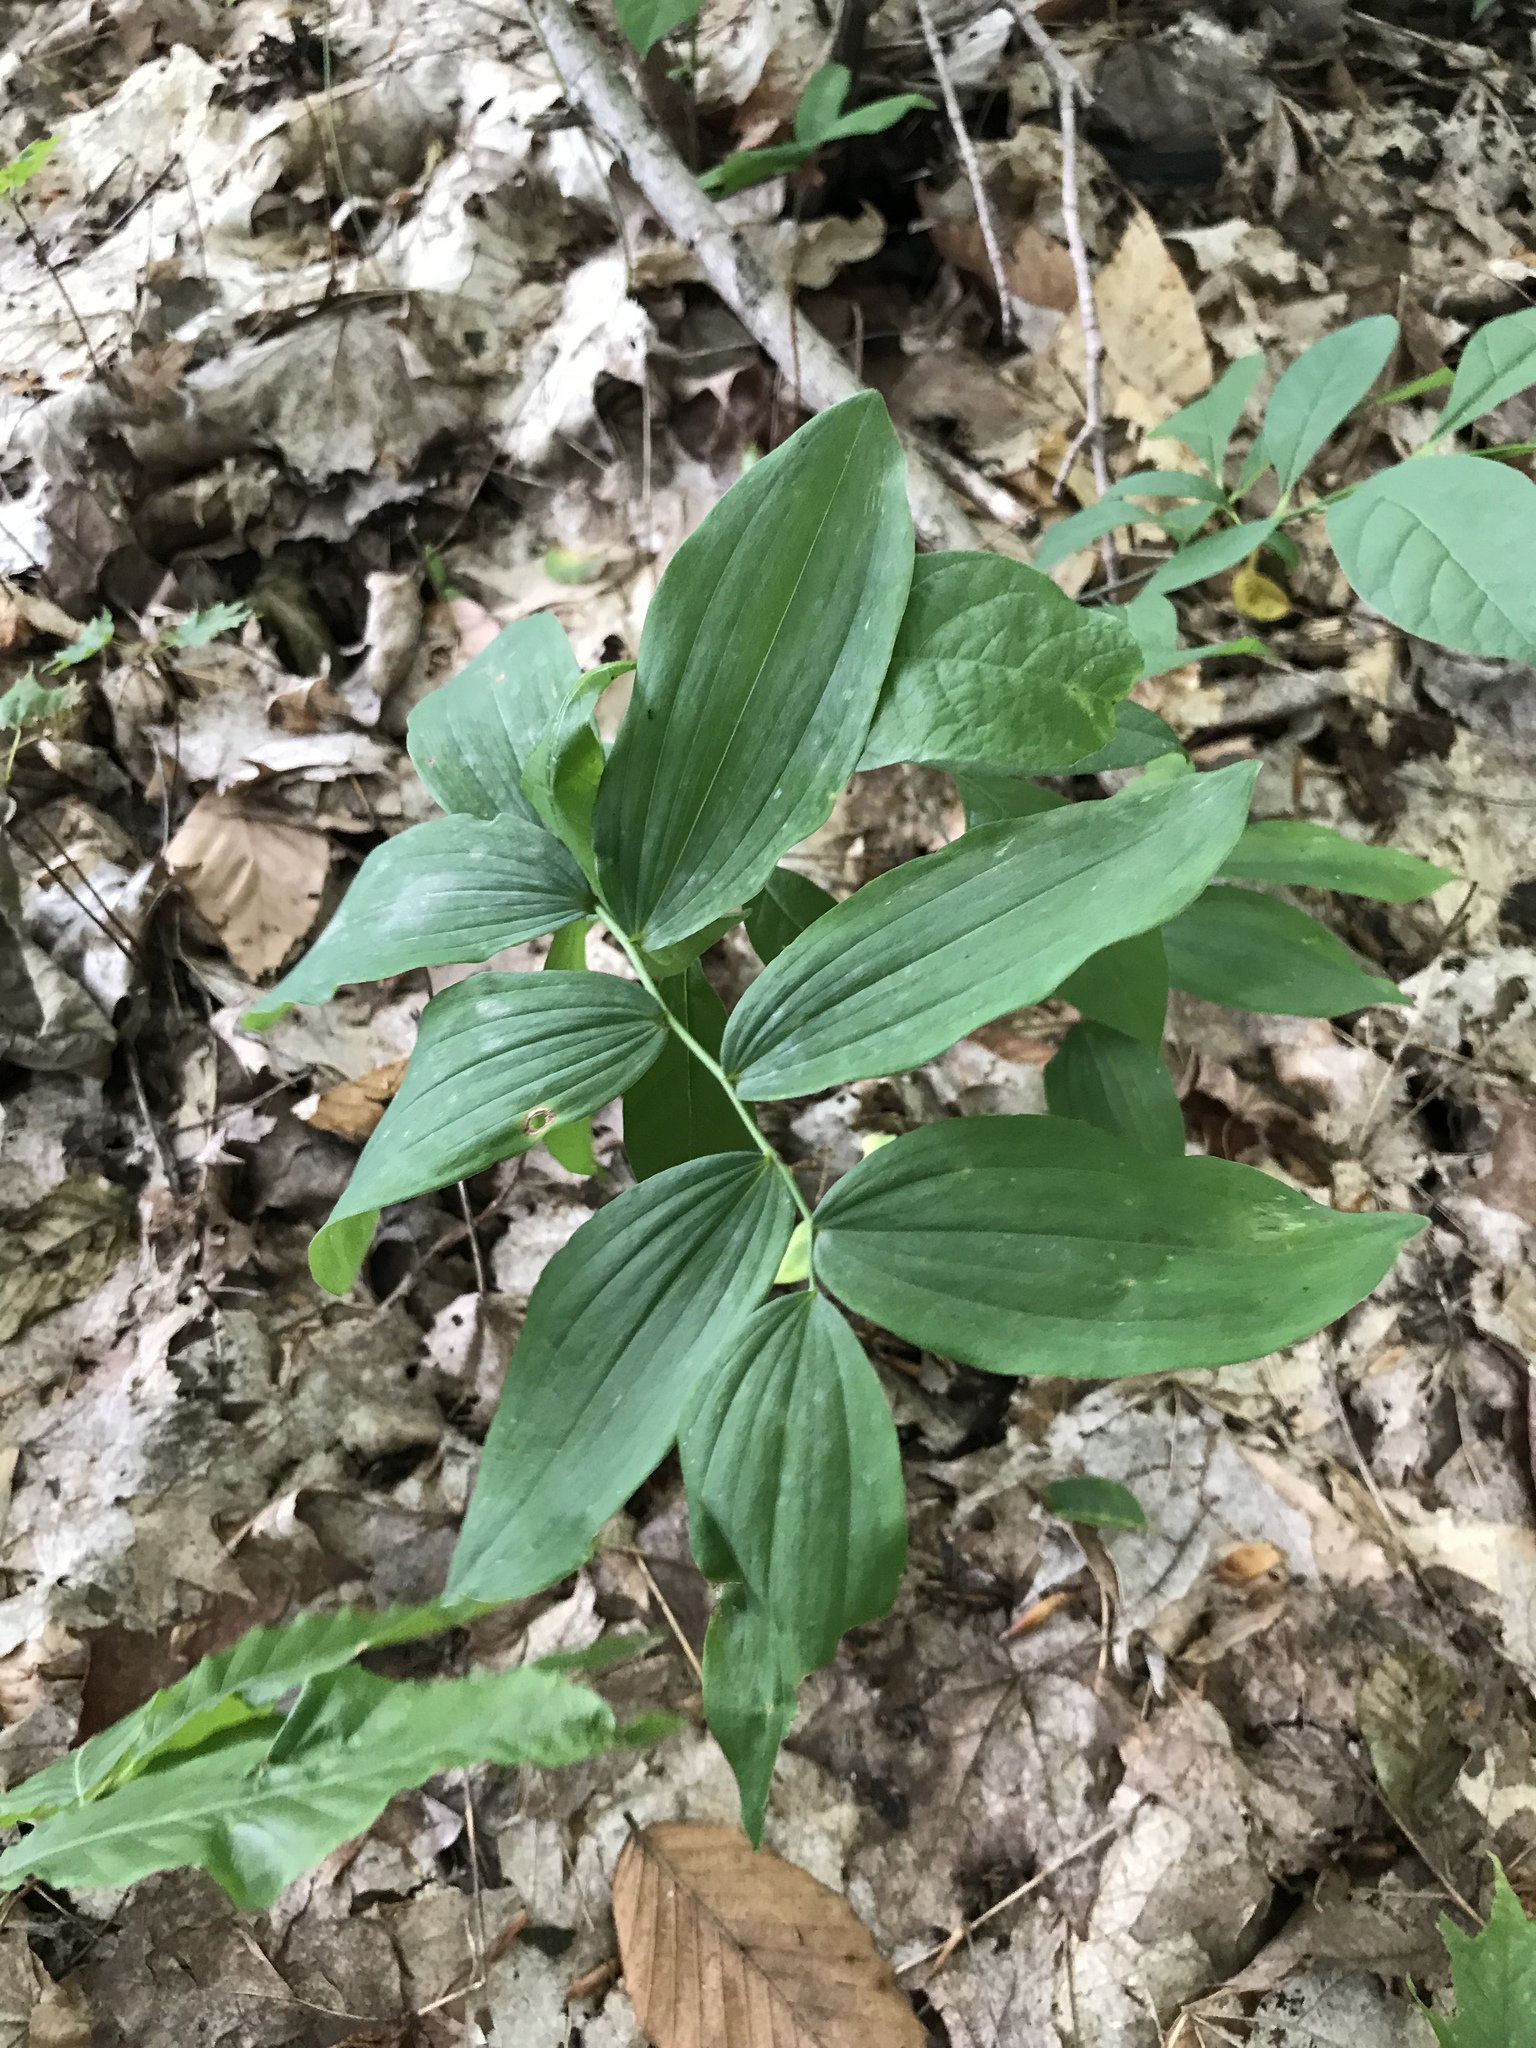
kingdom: Plantae
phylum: Tracheophyta
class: Liliopsida
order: Asparagales
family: Asparagaceae
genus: Polygonatum
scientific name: Polygonatum pubescens
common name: Downy solomon's seal
